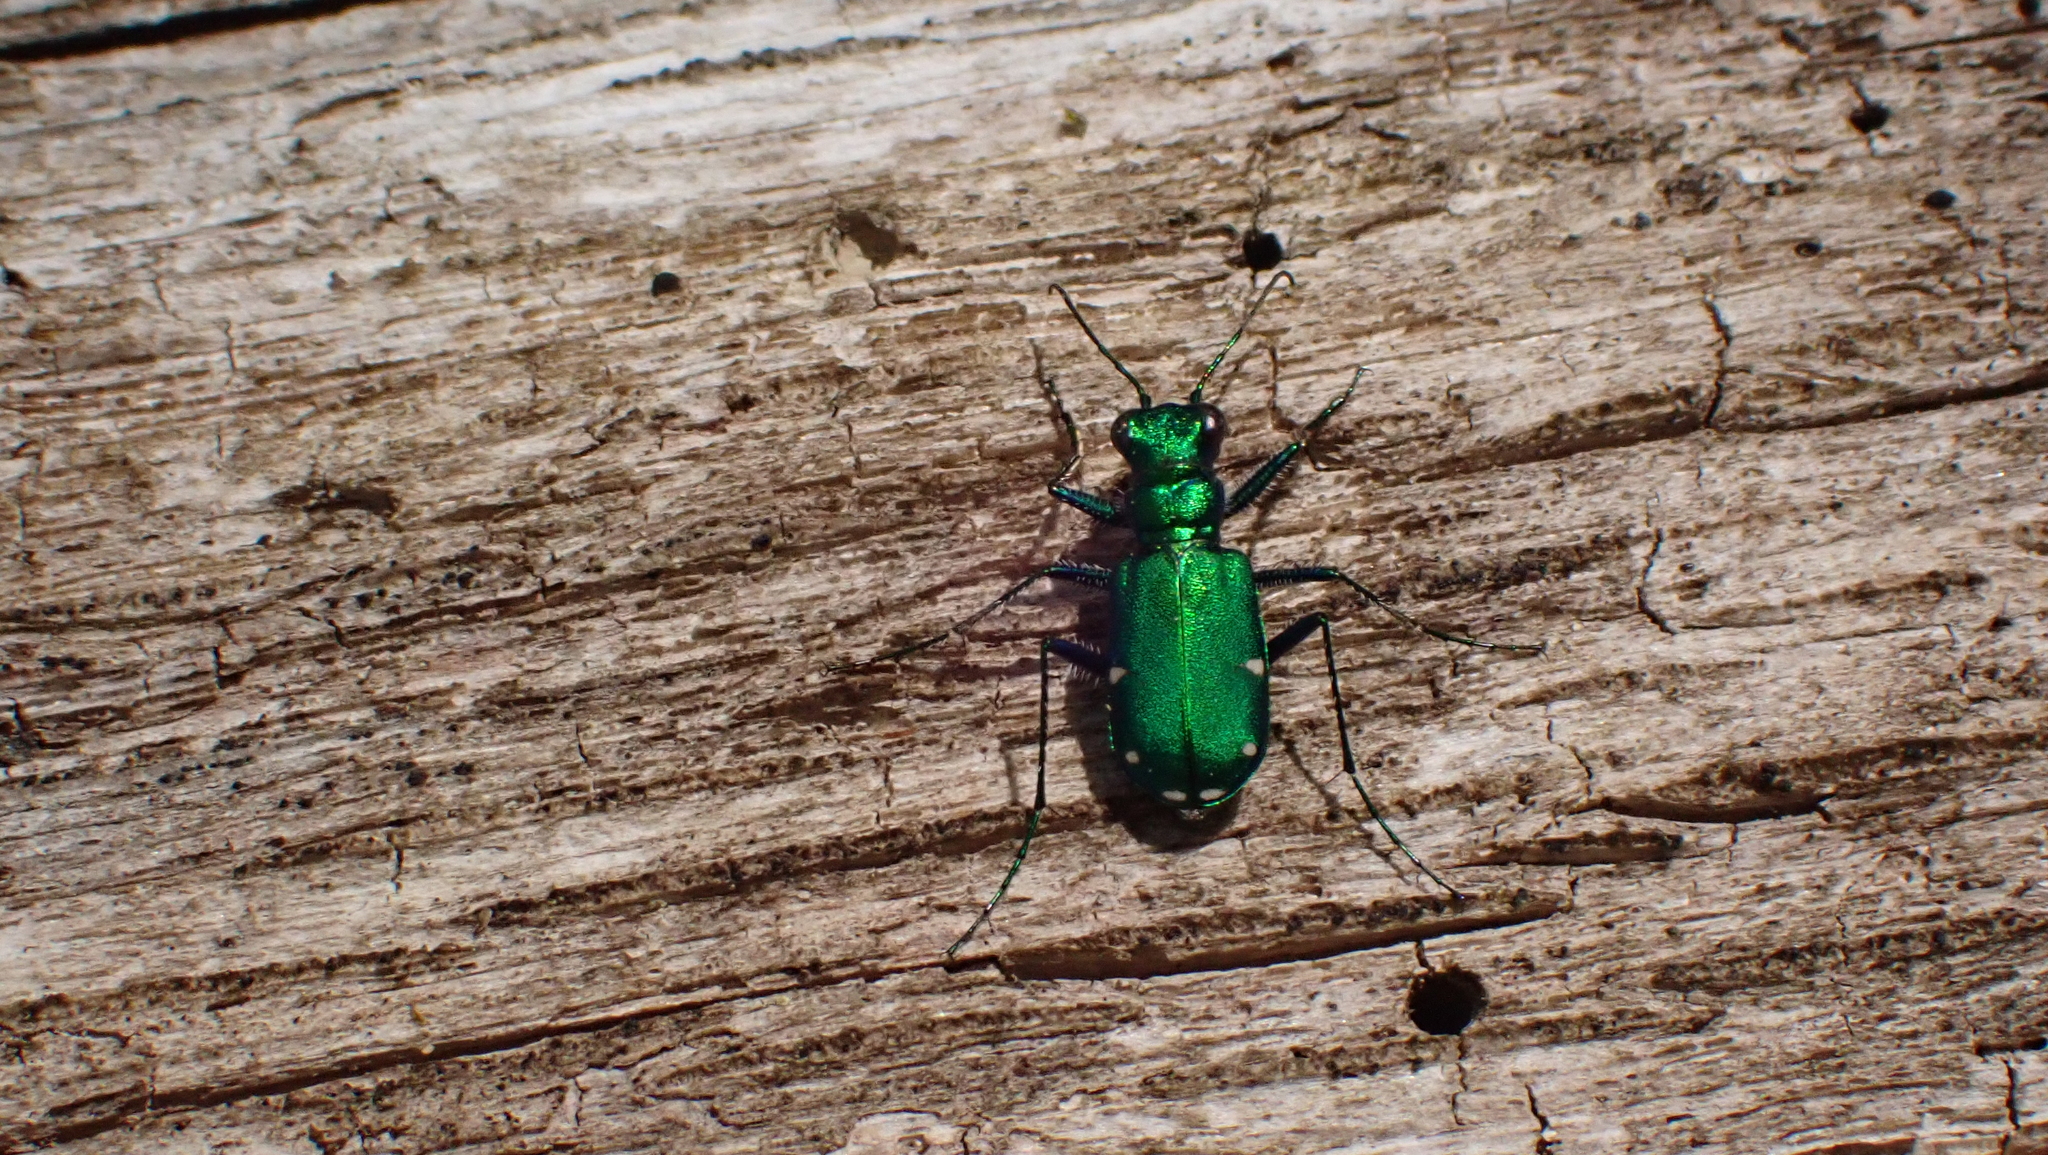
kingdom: Animalia
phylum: Arthropoda
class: Insecta
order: Coleoptera
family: Carabidae
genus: Cicindela
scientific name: Cicindela sexguttata
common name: Six-spotted tiger beetle
